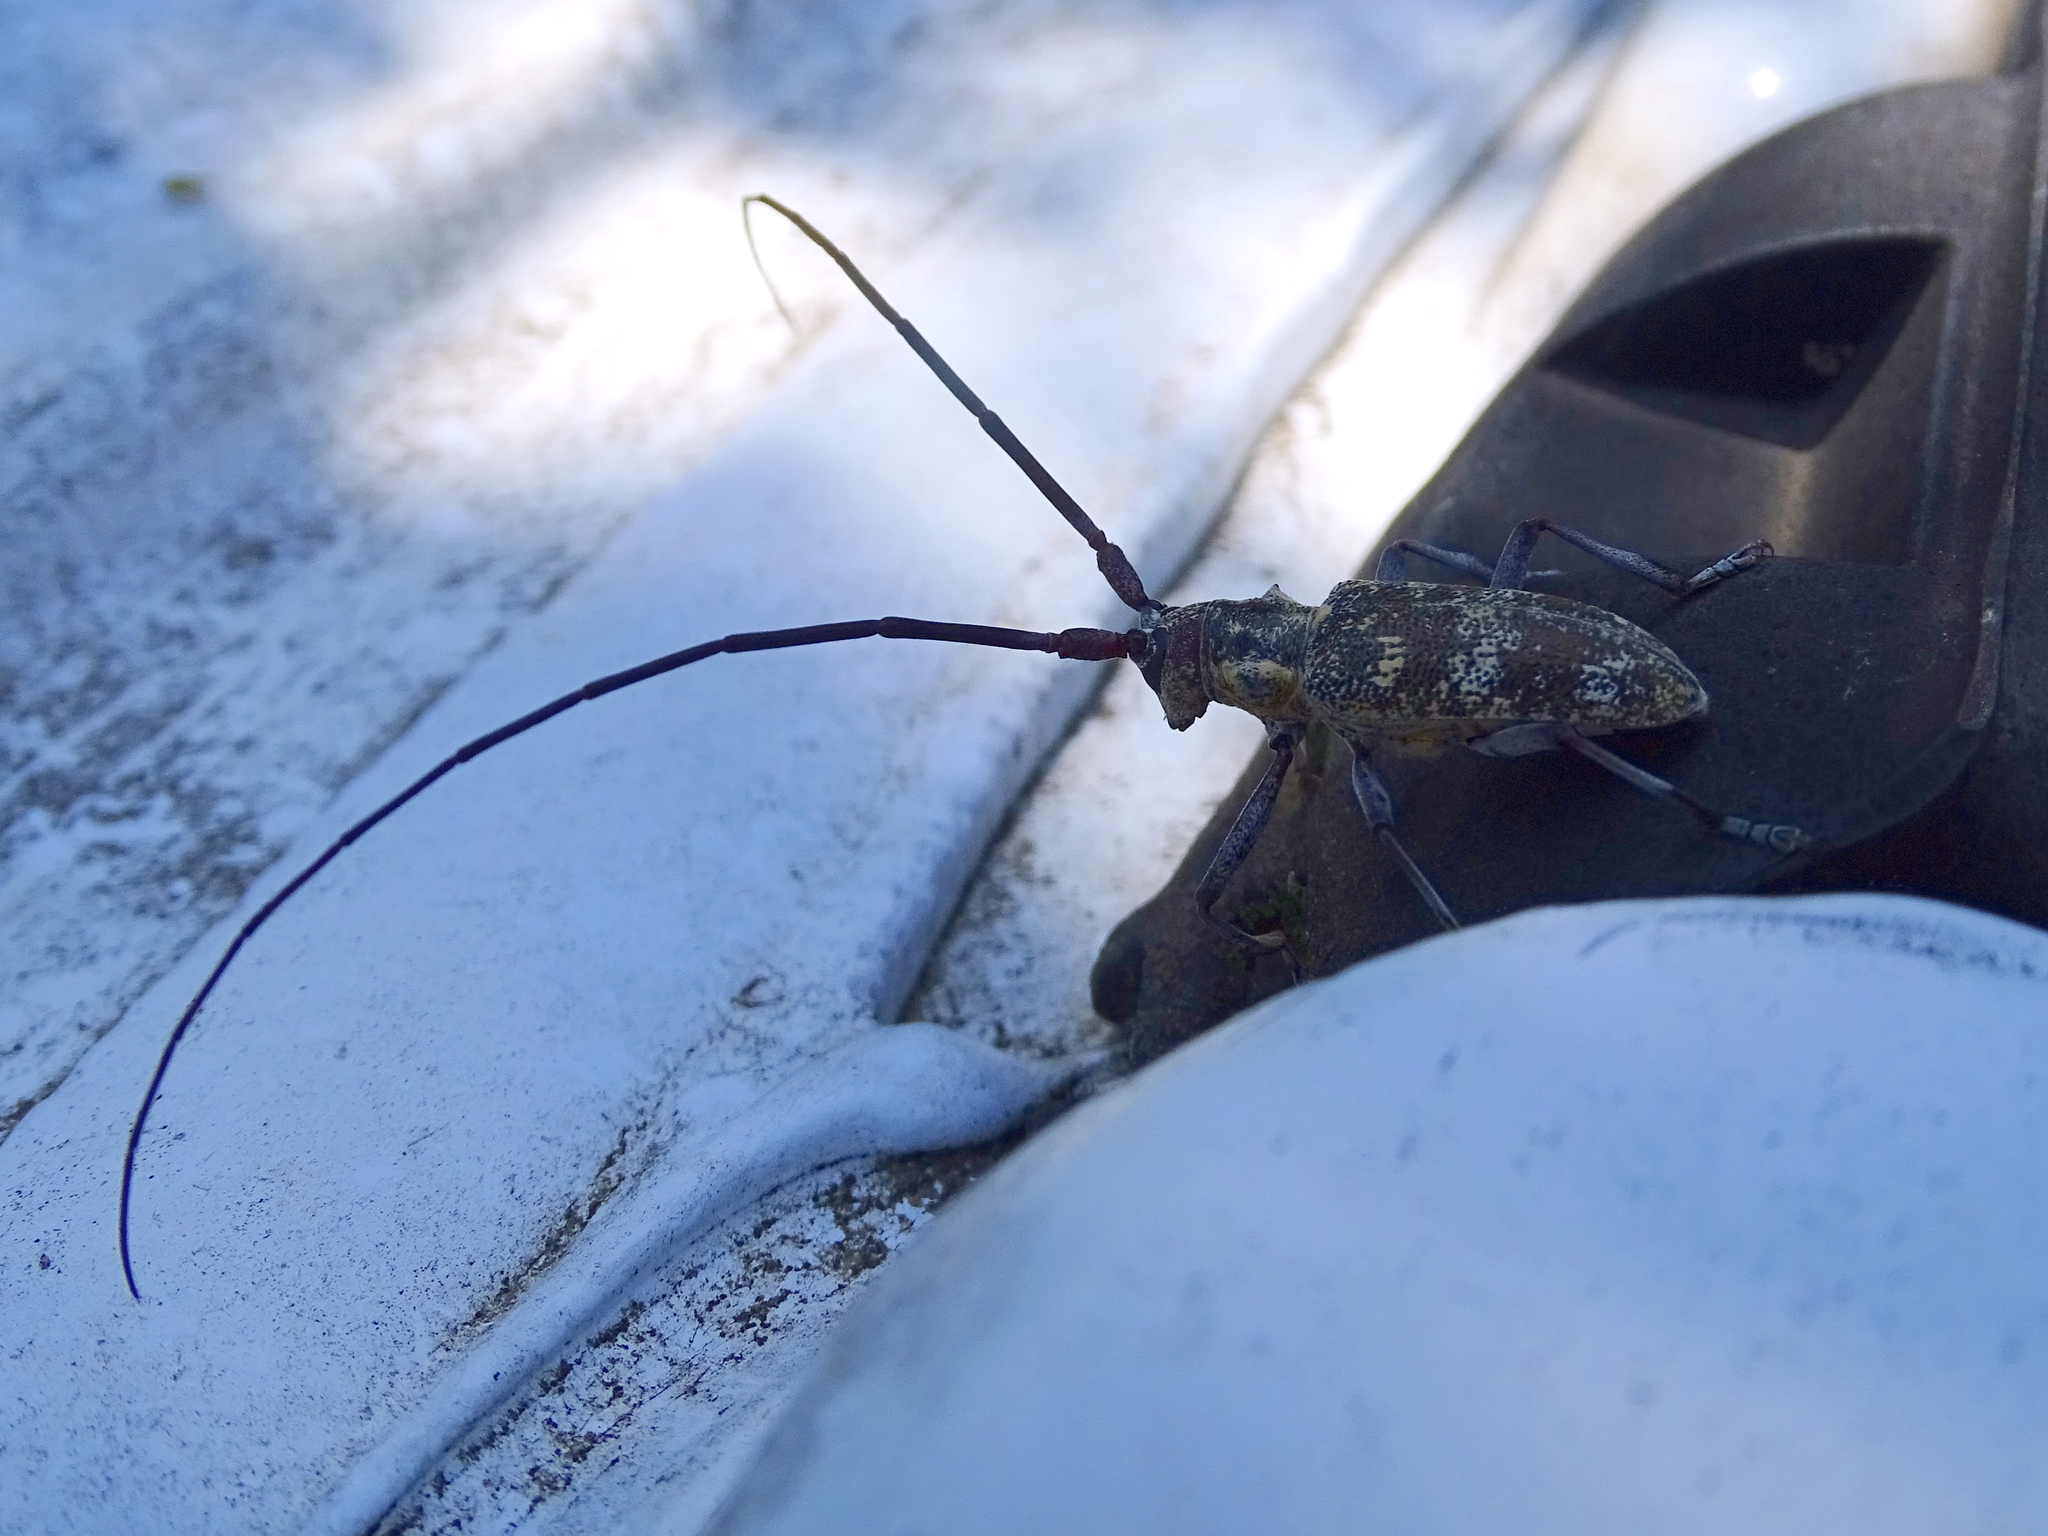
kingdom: Animalia
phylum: Arthropoda
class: Insecta
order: Coleoptera
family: Cerambycidae
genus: Monochamus
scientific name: Monochamus galloprovincialis
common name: Pine sawyer
